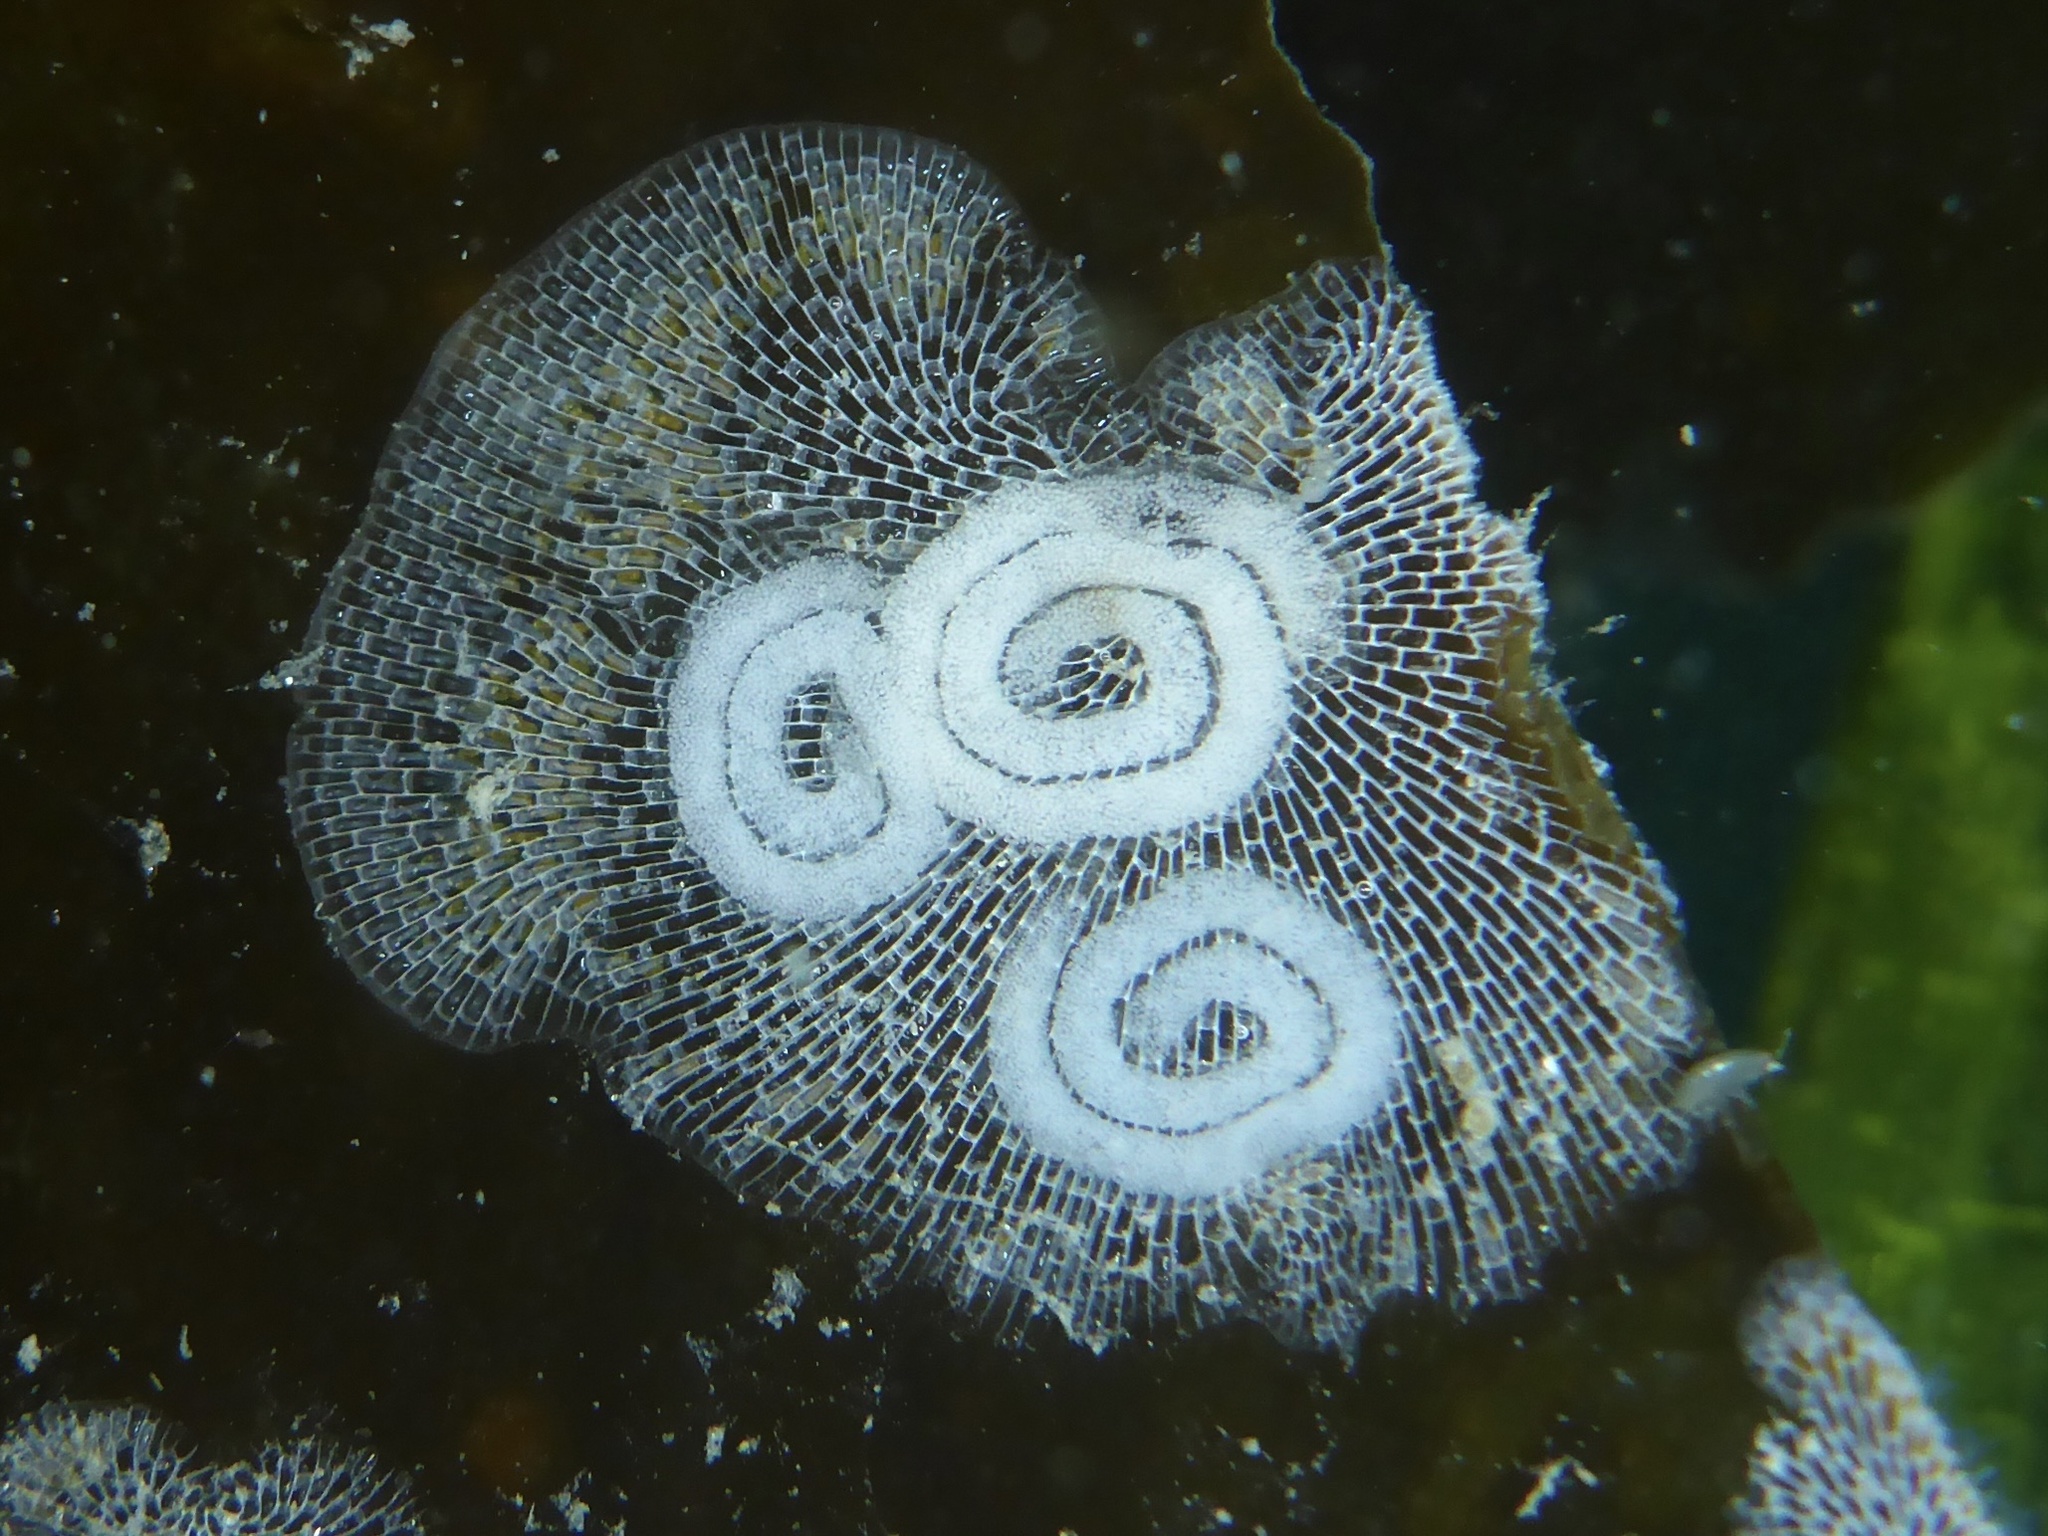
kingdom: Animalia
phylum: Mollusca
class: Gastropoda
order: Nudibranchia
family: Corambidae
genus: Corambe
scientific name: Corambe pacifica
